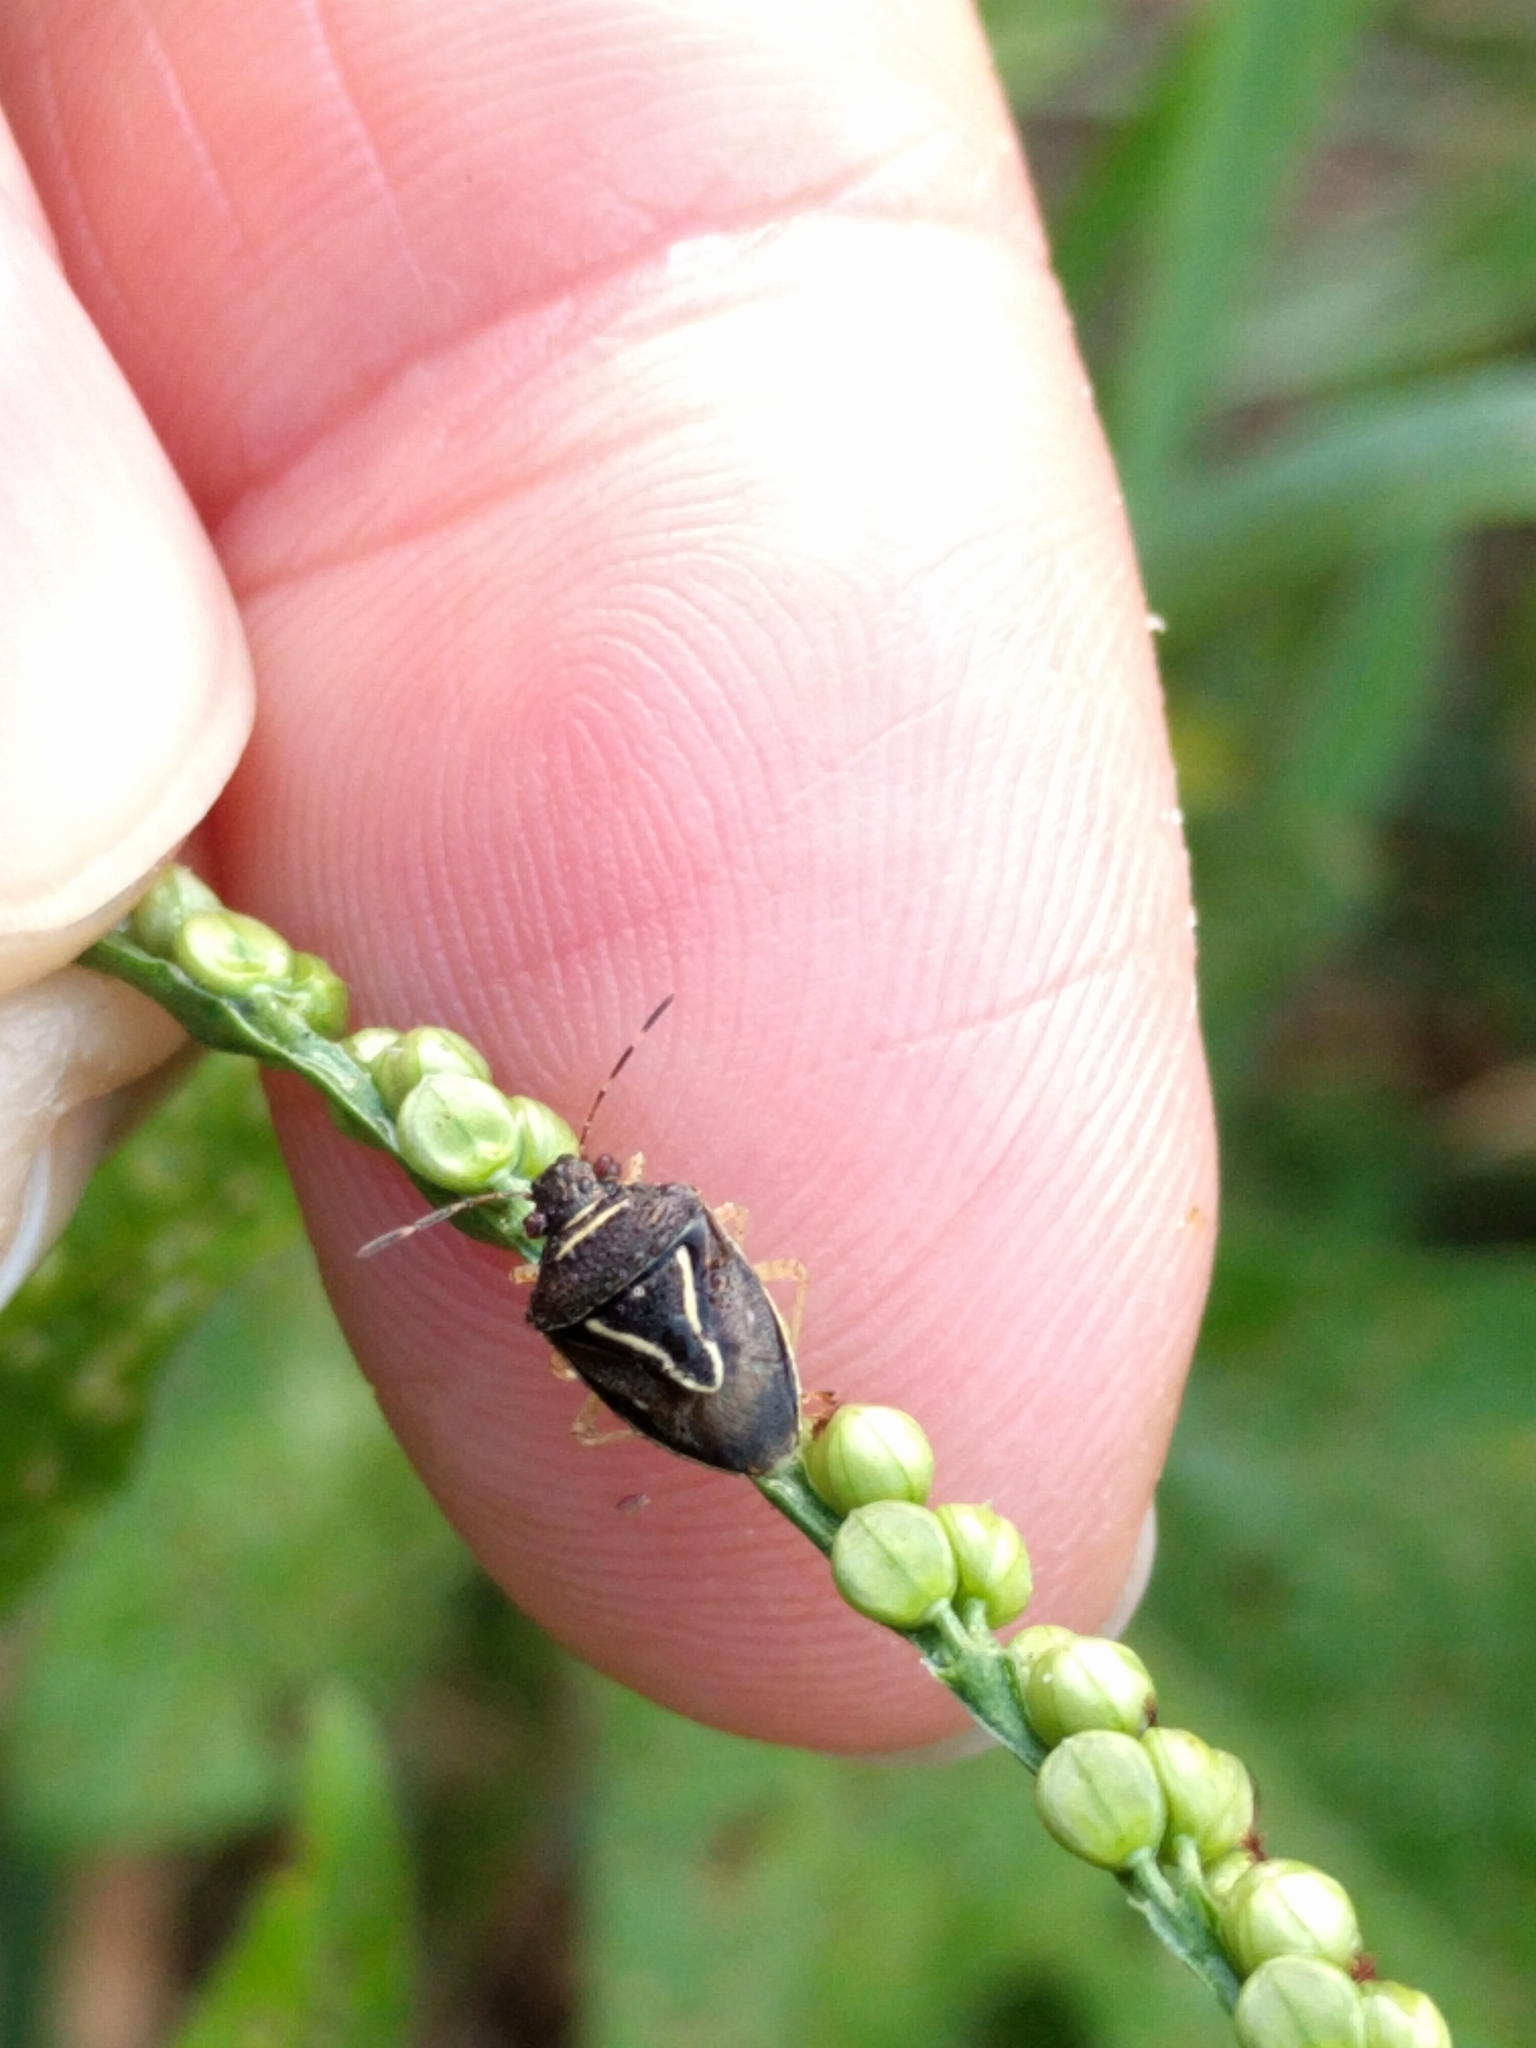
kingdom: Animalia
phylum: Arthropoda
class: Insecta
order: Hemiptera
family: Pentatomidae
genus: Mormidea
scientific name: Mormidea lugens
